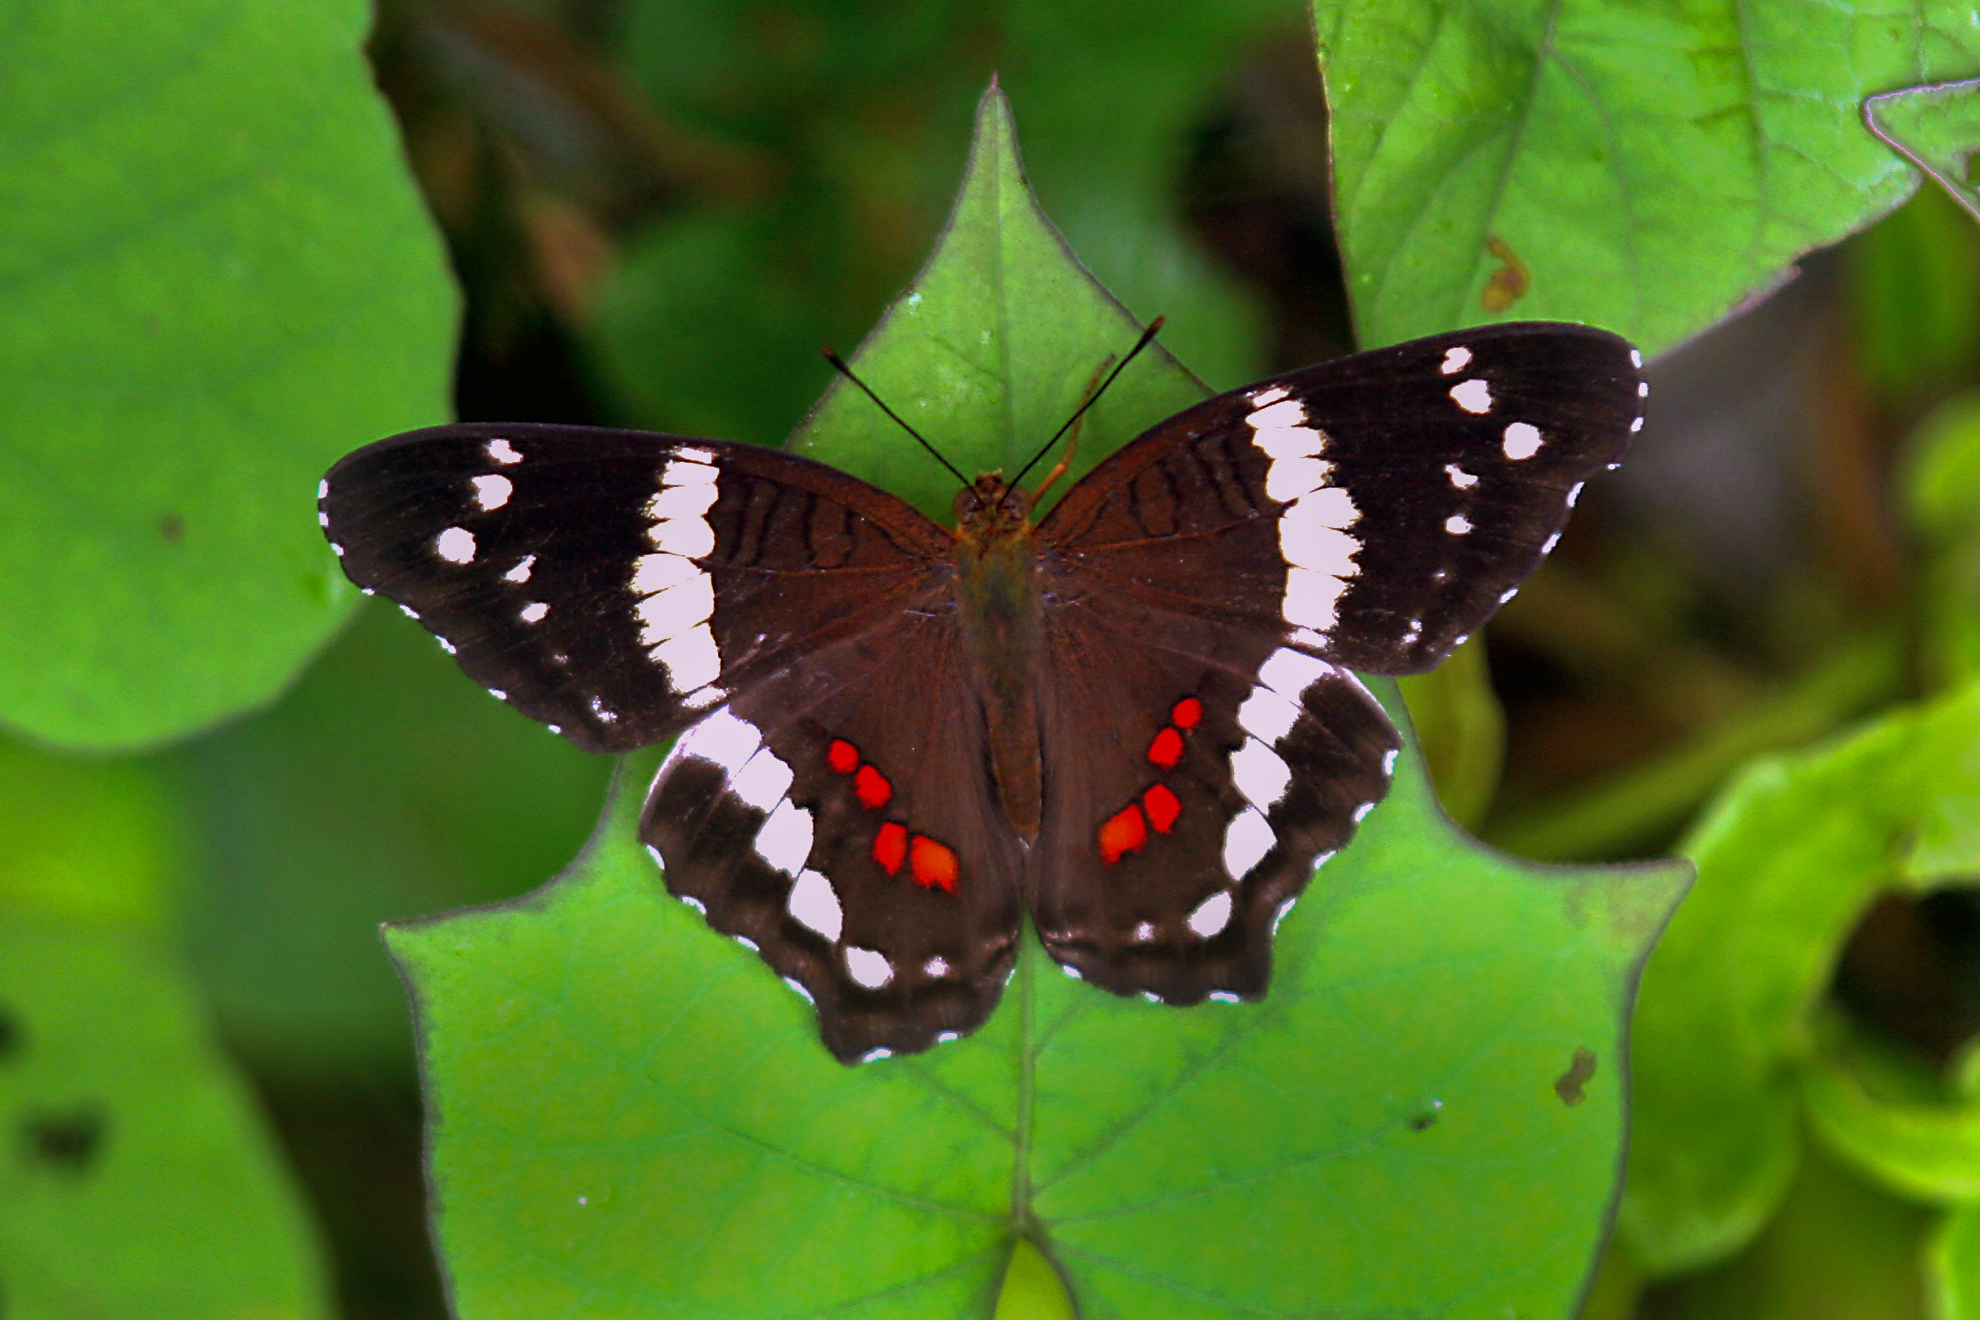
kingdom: Animalia
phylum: Arthropoda
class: Insecta
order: Lepidoptera
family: Nymphalidae
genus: Anartia
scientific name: Anartia fatima
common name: Banded peacock
